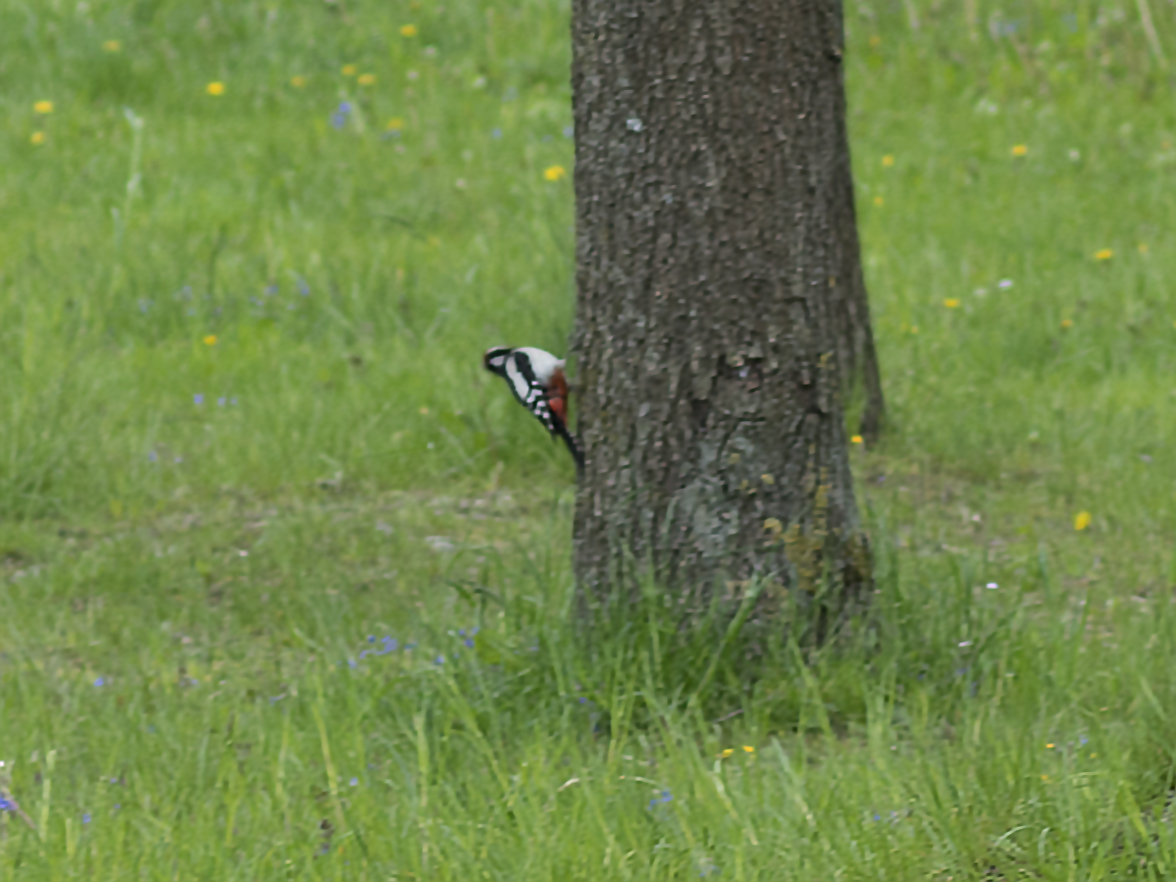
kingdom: Animalia
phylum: Chordata
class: Aves
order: Piciformes
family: Picidae
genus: Dendrocopos
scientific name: Dendrocopos major
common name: Great spotted woodpecker
